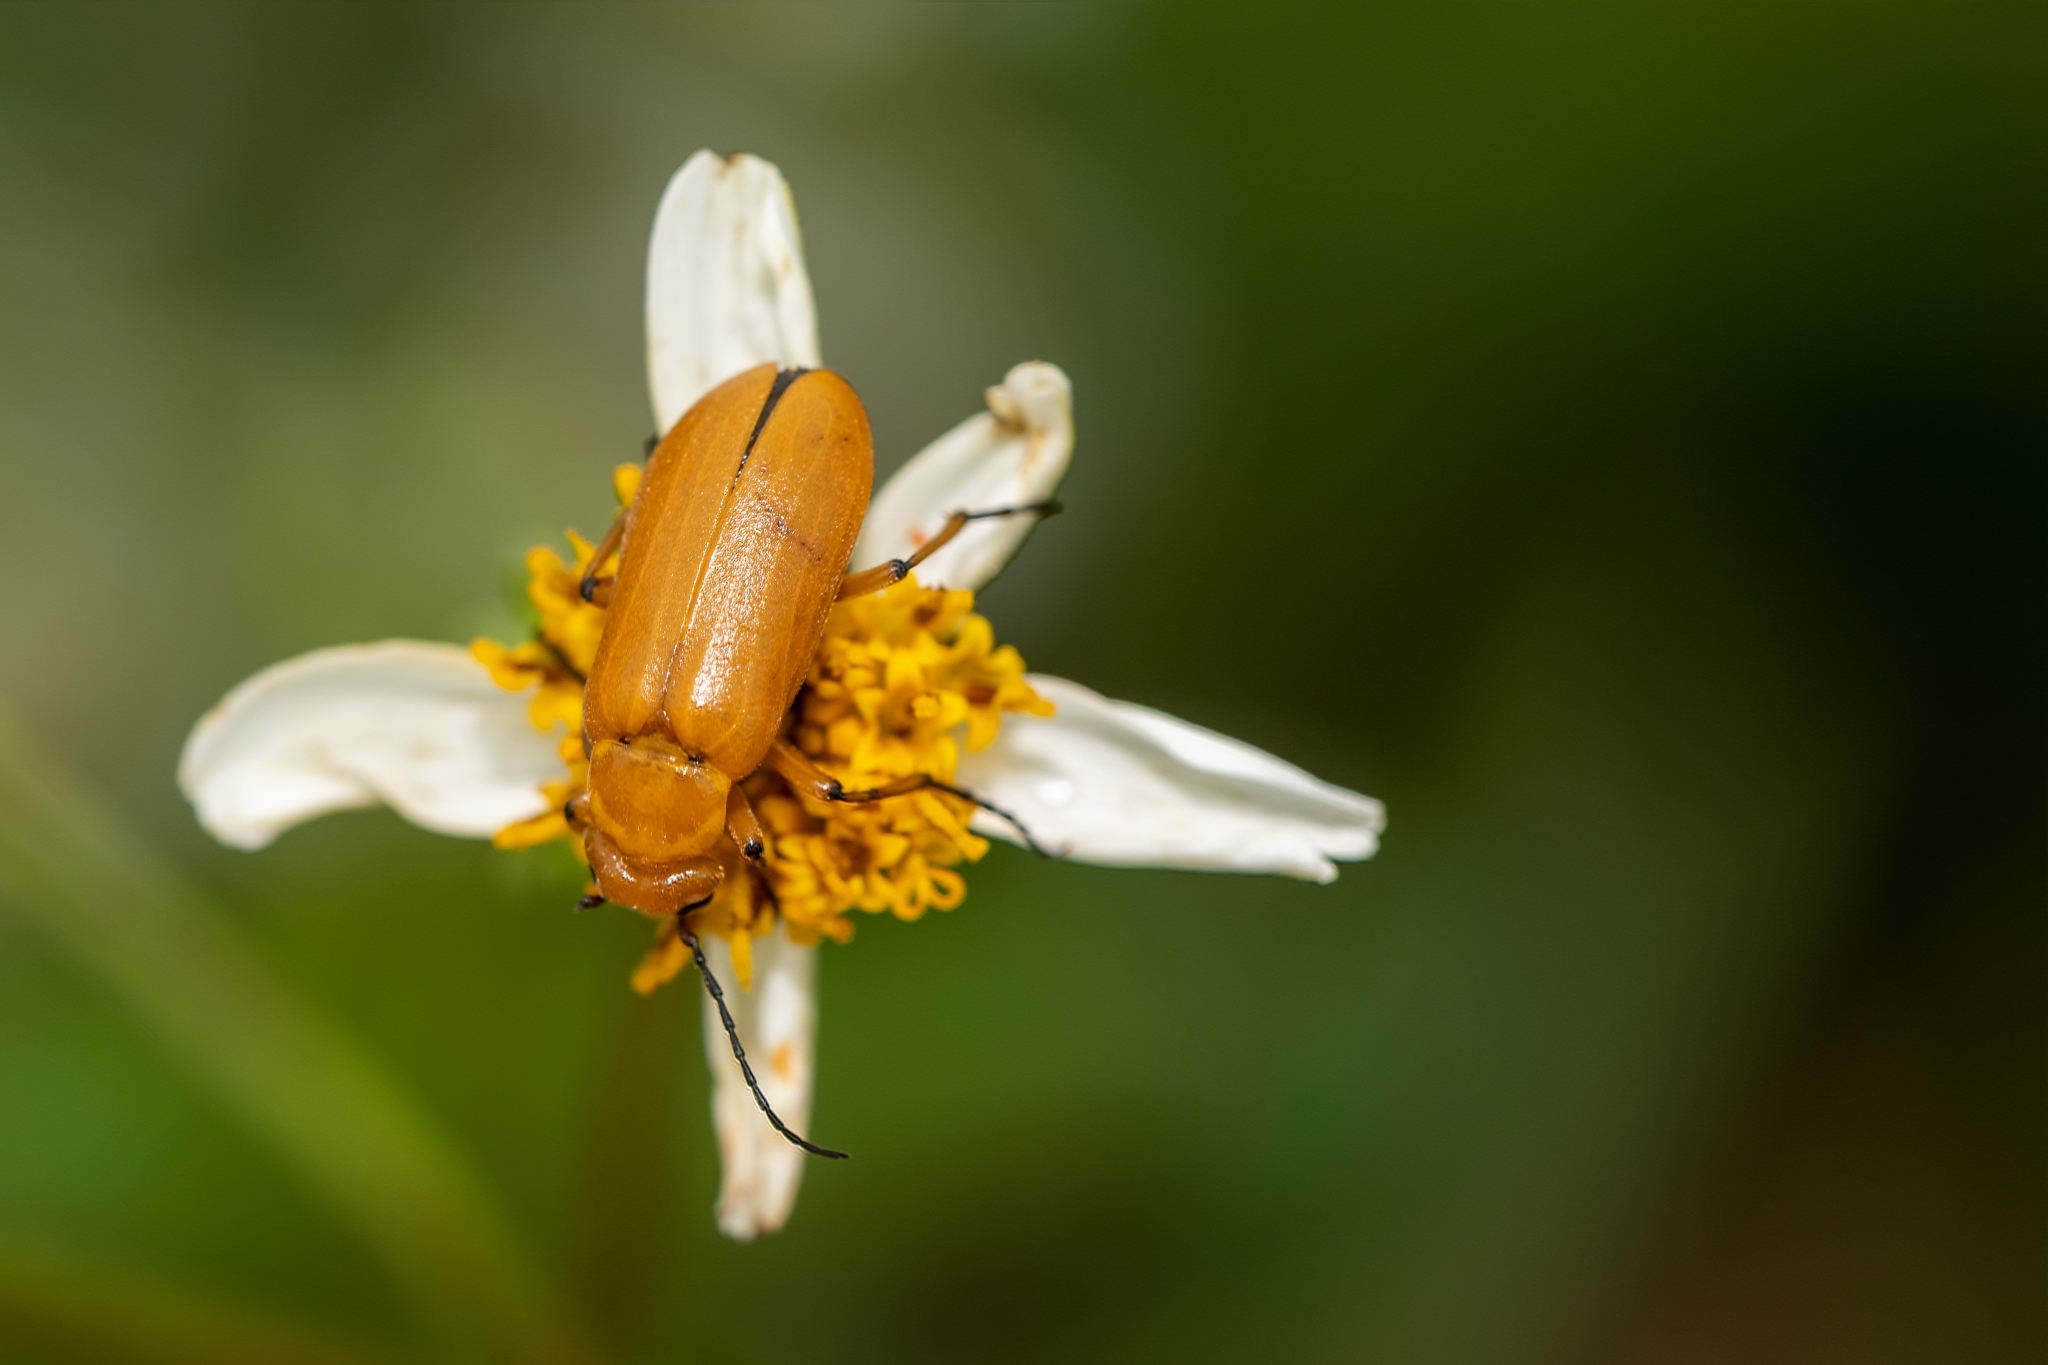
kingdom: Animalia
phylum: Arthropoda
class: Insecta
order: Coleoptera
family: Meloidae
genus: Nemognatha
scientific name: Nemognatha punctulata
